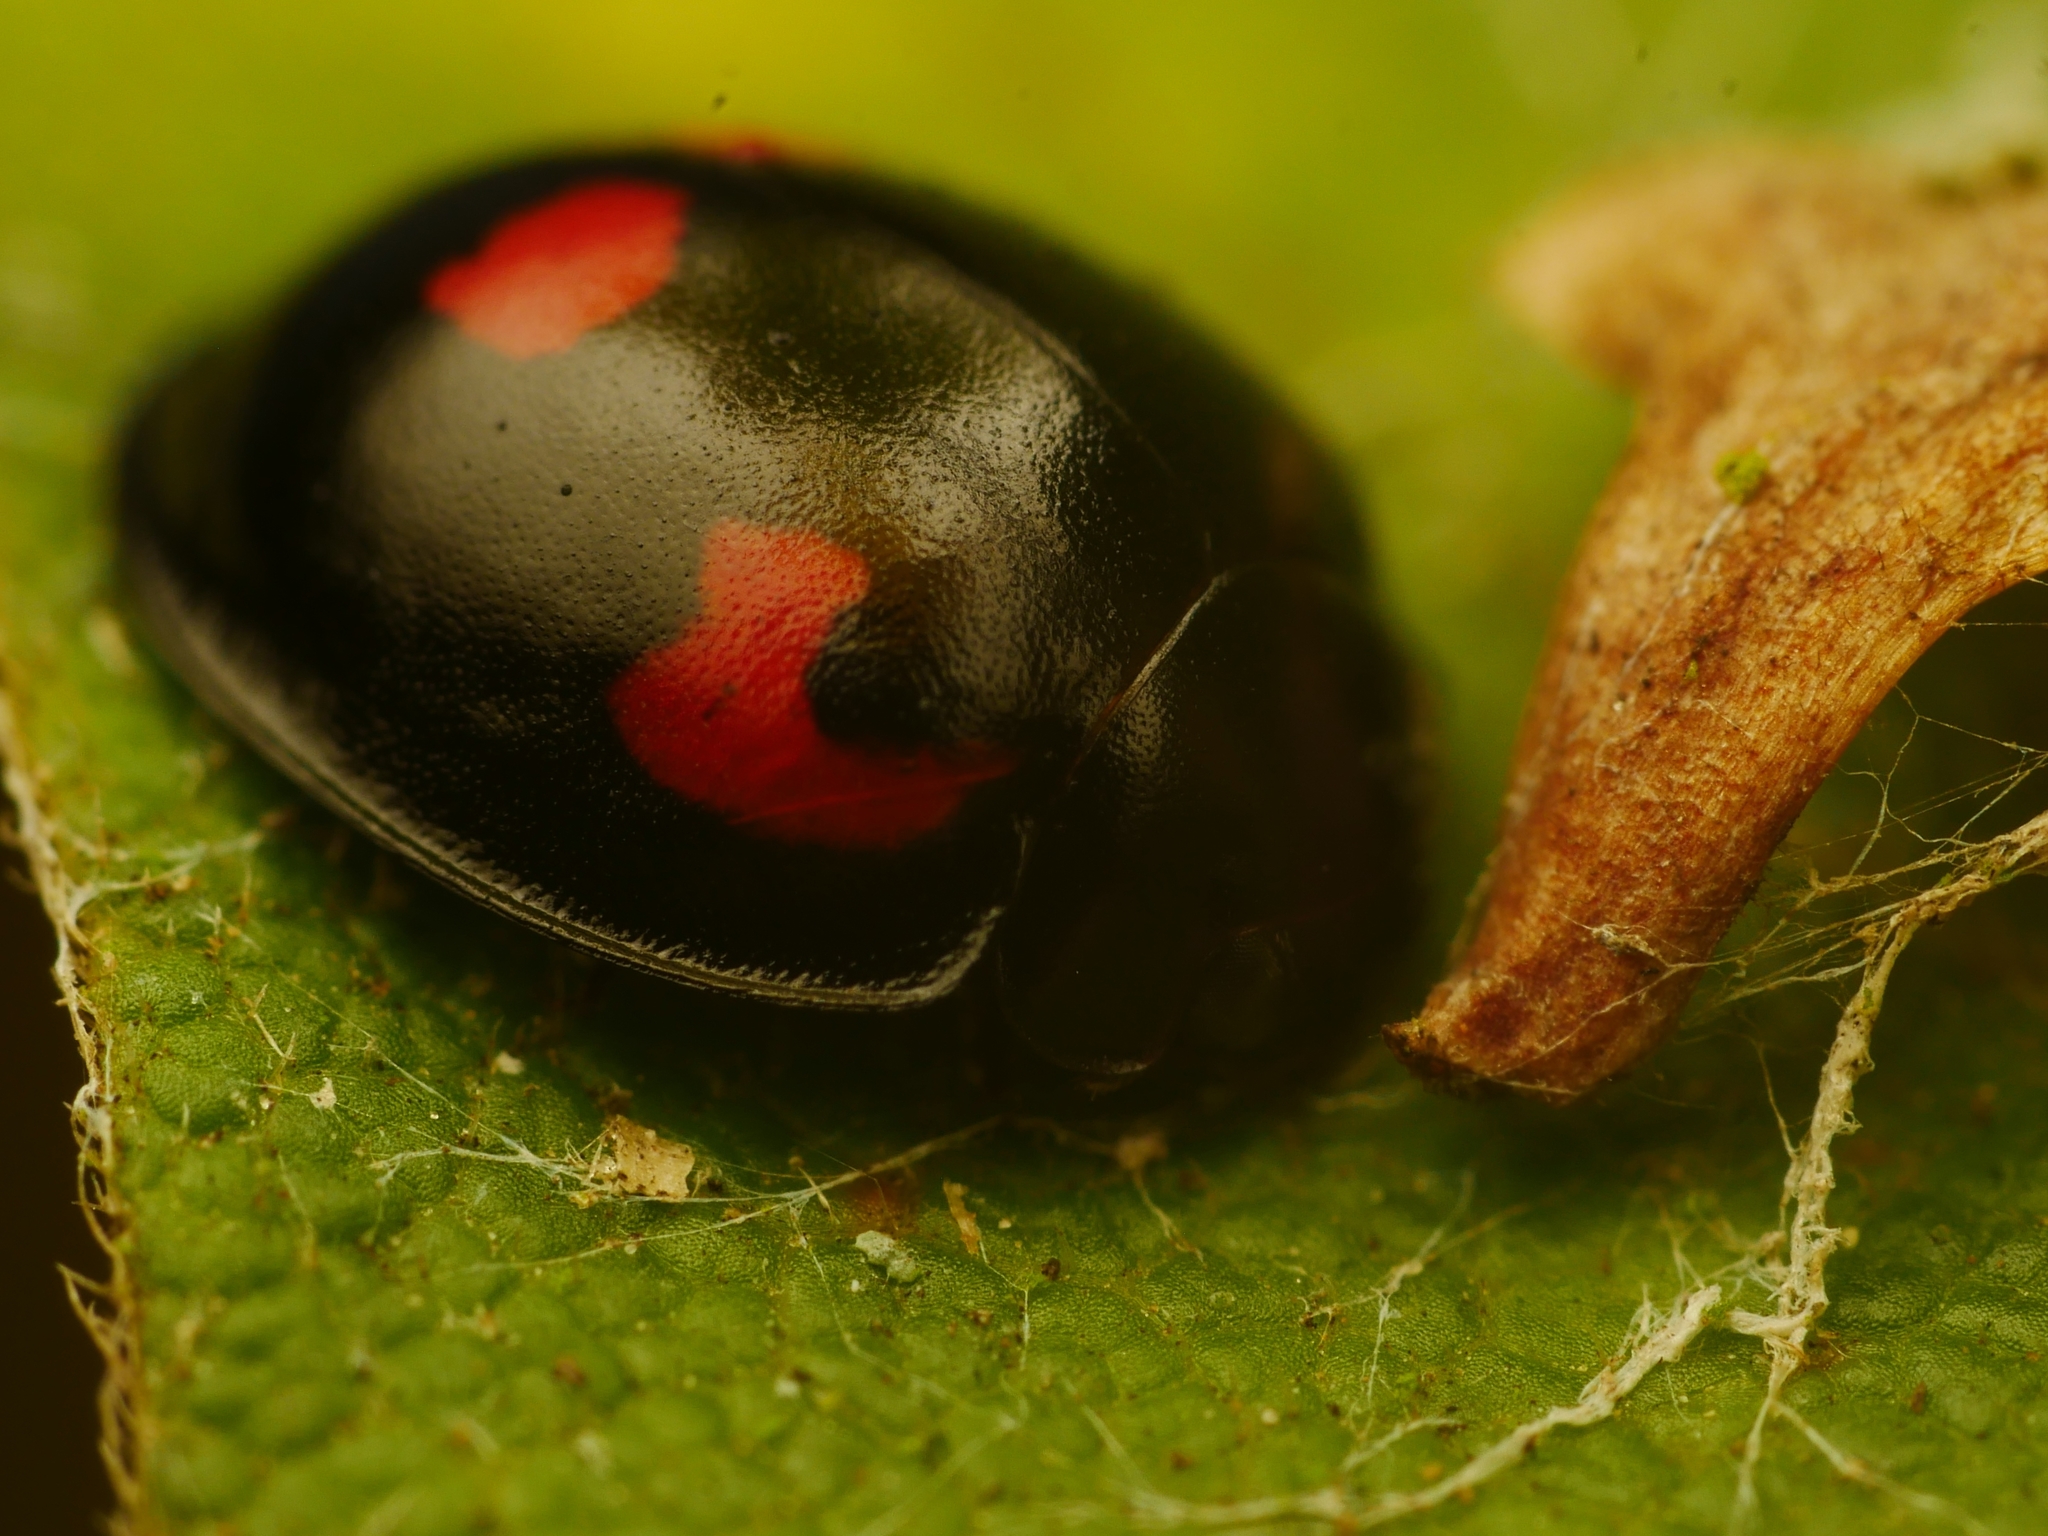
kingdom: Animalia
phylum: Arthropoda
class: Insecta
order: Coleoptera
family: Coccinellidae
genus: Brumus
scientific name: Brumus quadripustulatus
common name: Ladybird beetle
